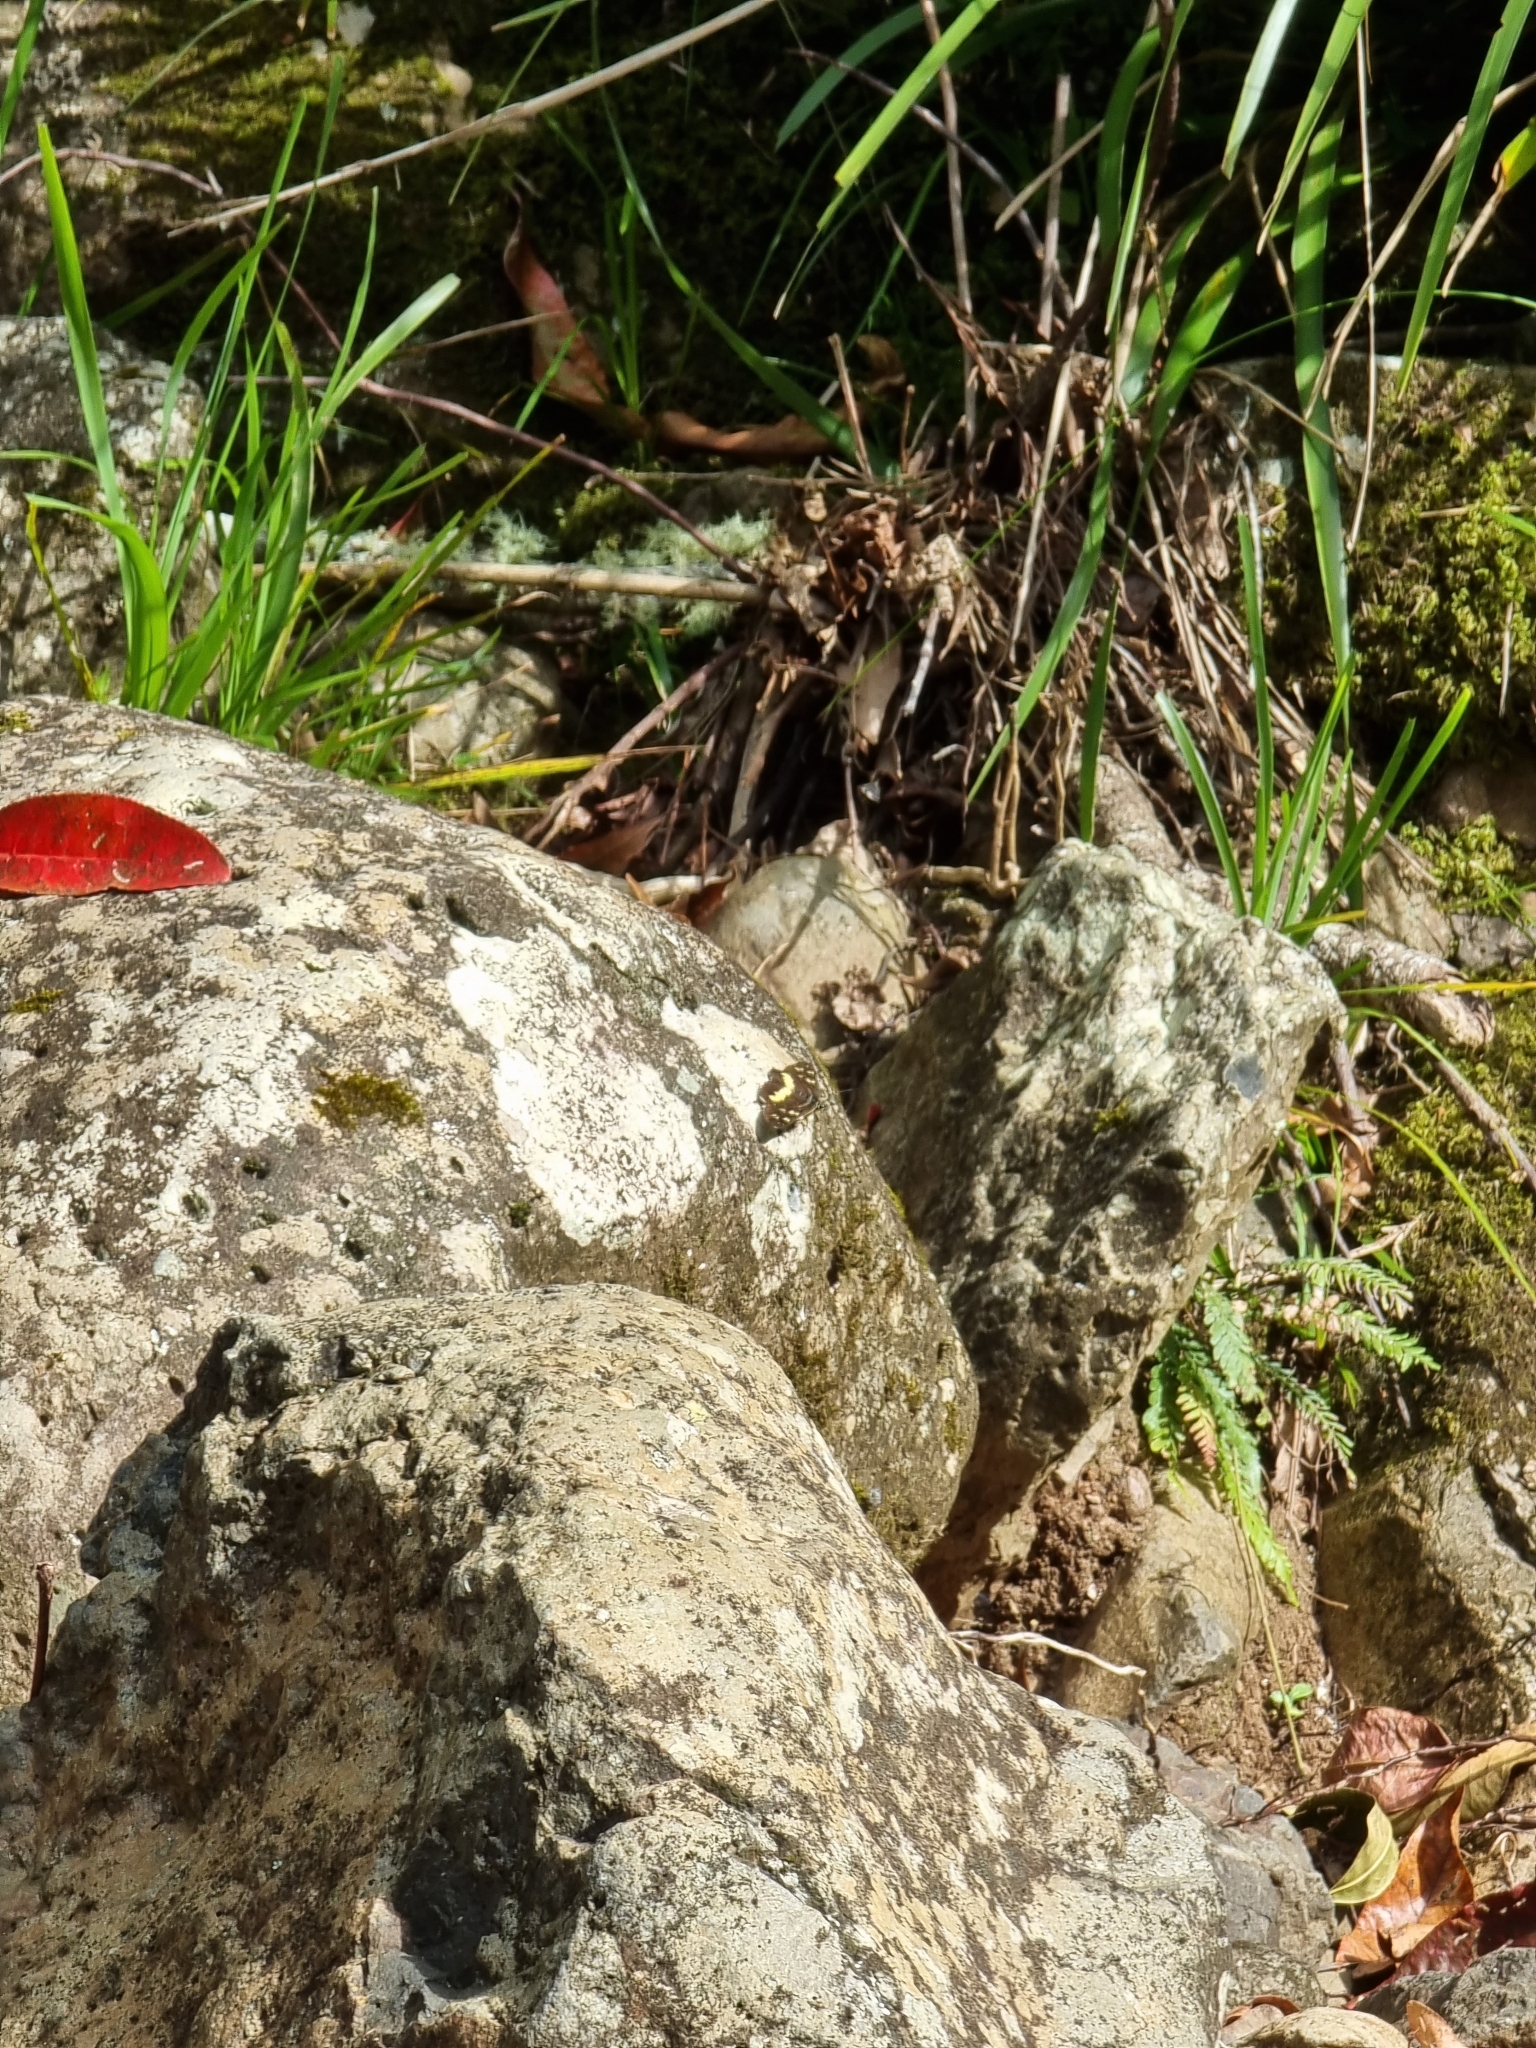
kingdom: Animalia
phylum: Arthropoda
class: Insecta
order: Lepidoptera
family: Noctuidae
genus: Cruria
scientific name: Cruria synopla
